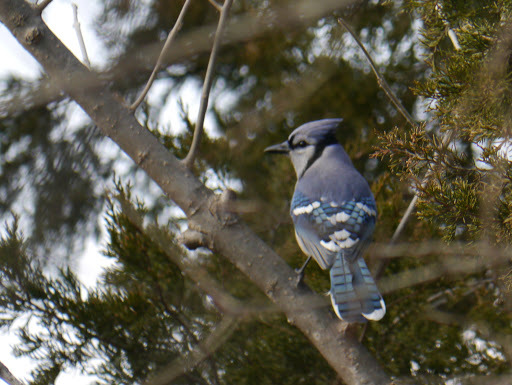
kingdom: Animalia
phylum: Chordata
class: Aves
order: Passeriformes
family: Corvidae
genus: Cyanocitta
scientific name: Cyanocitta cristata
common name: Blue jay
